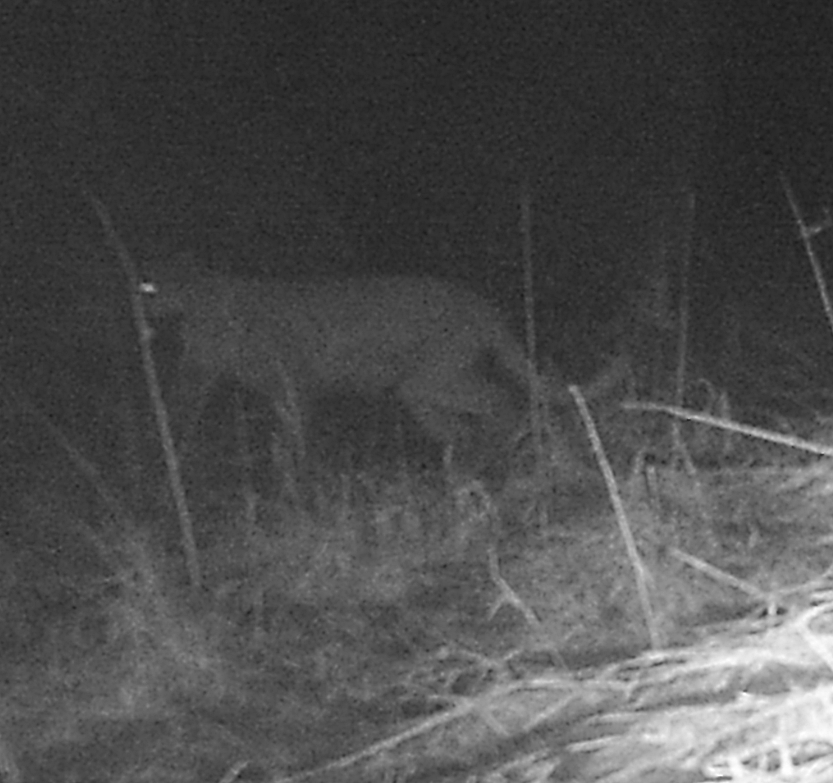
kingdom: Animalia
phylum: Chordata
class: Mammalia
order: Carnivora
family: Felidae
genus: Puma
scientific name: Puma concolor
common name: Puma
